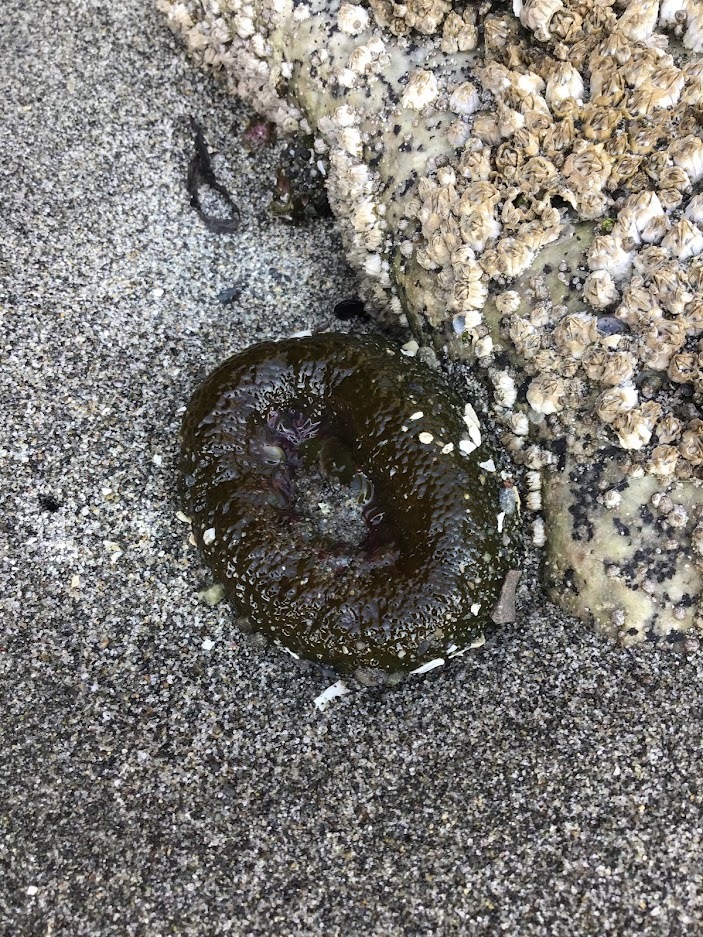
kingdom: Animalia
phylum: Cnidaria
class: Anthozoa
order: Actiniaria
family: Actiniidae
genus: Anthopleura
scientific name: Anthopleura elegantissima
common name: Clonal anemone
